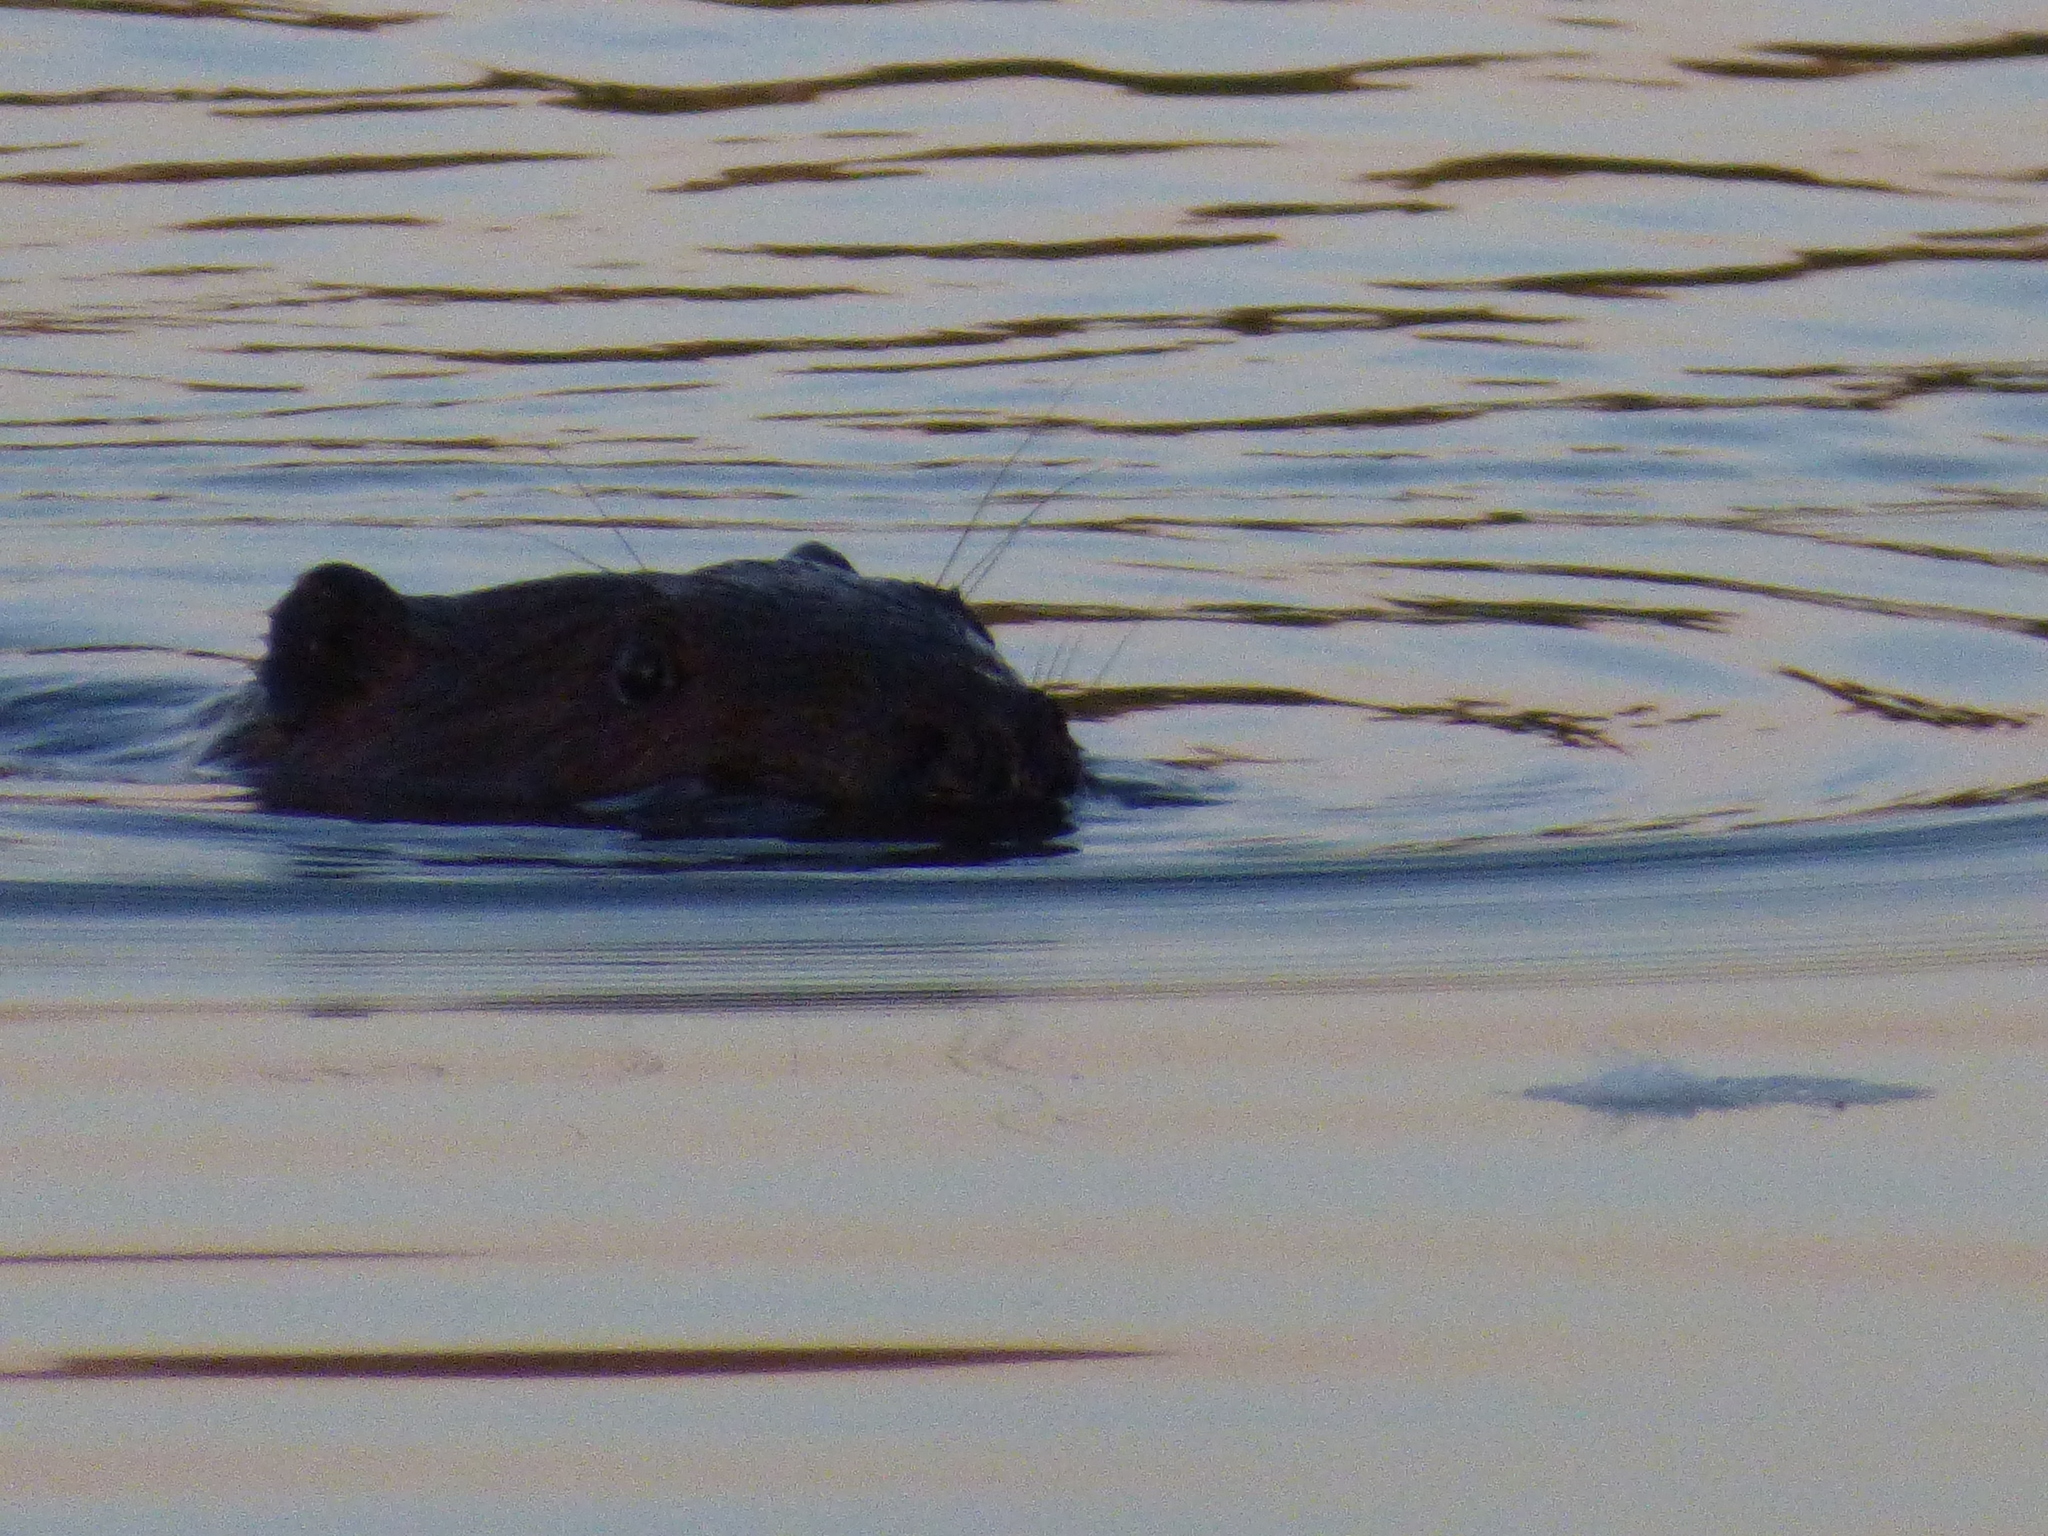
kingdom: Animalia
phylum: Chordata
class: Mammalia
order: Rodentia
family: Castoridae
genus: Castor
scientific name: Castor canadensis
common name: American beaver
